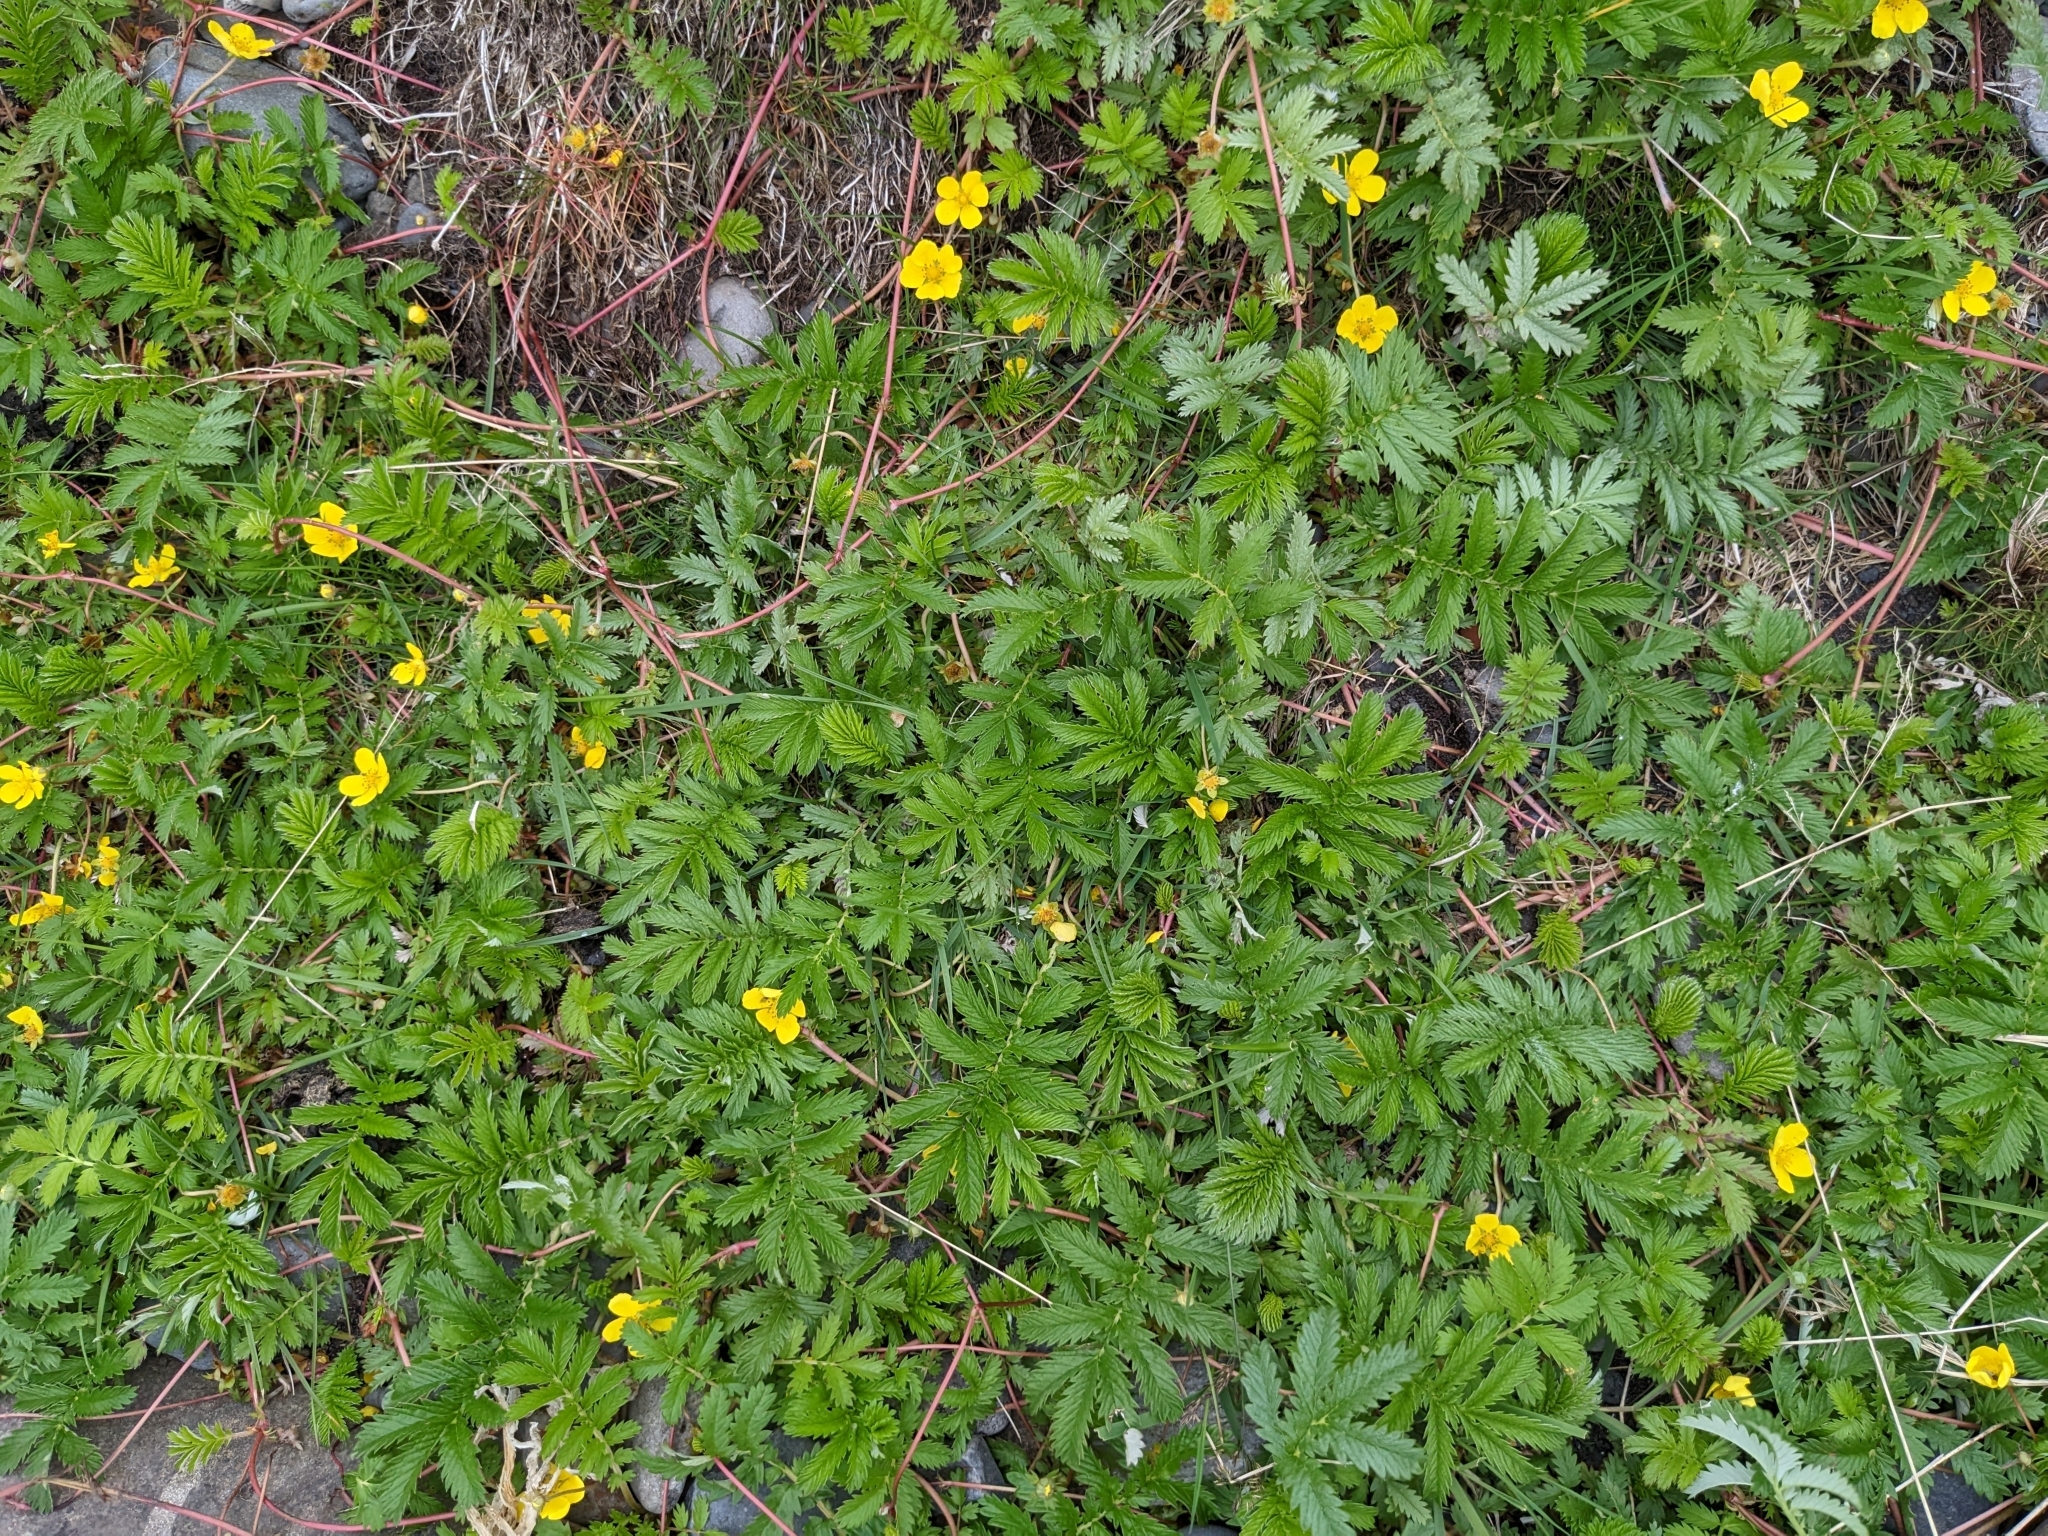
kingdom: Plantae
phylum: Tracheophyta
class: Magnoliopsida
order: Rosales
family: Rosaceae
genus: Argentina
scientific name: Argentina anserina
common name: Common silverweed
